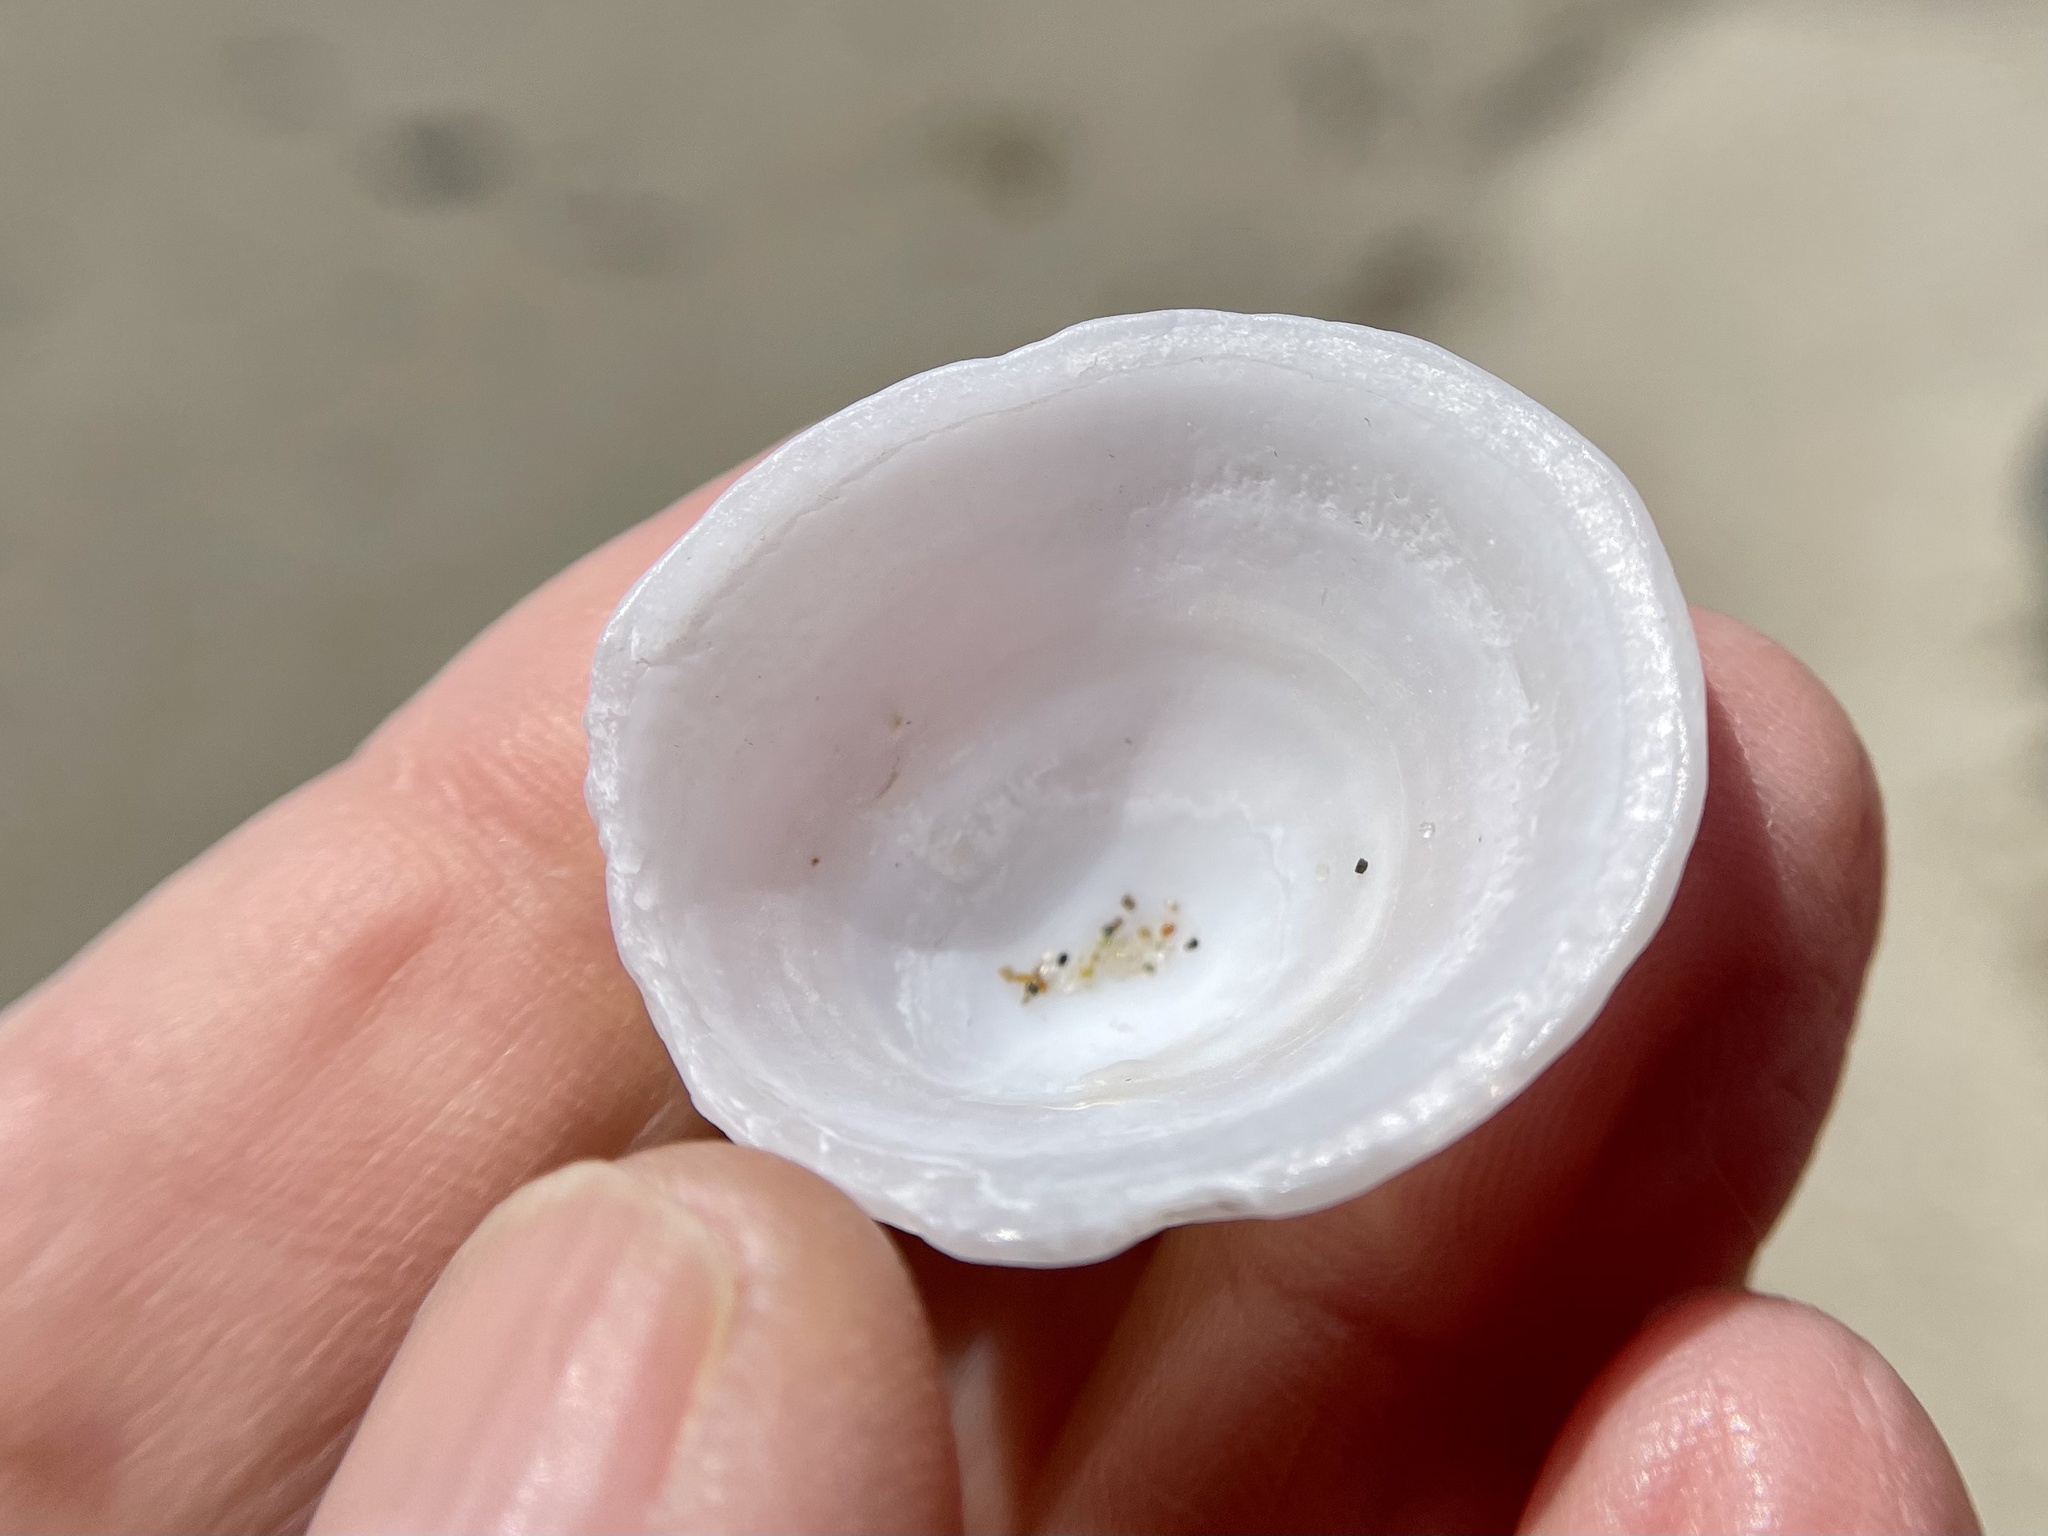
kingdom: Animalia
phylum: Mollusca
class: Gastropoda
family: Acmaeidae
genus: Acmaea
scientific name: Acmaea mitra
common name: Pacific white cap limpet
